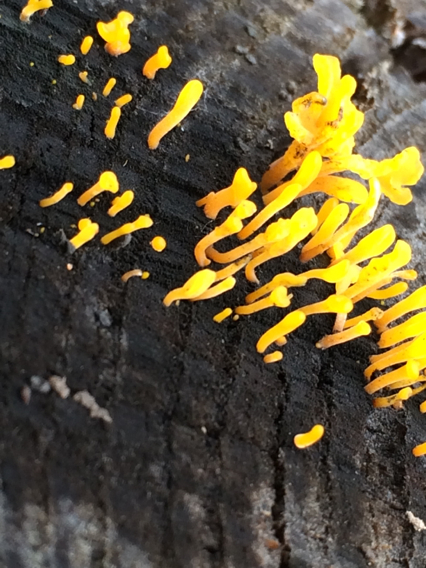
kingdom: Fungi
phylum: Basidiomycota
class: Dacrymycetes
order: Dacrymycetales
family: Dacrymycetaceae
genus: Dacrymyces
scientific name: Dacrymyces spathularius
